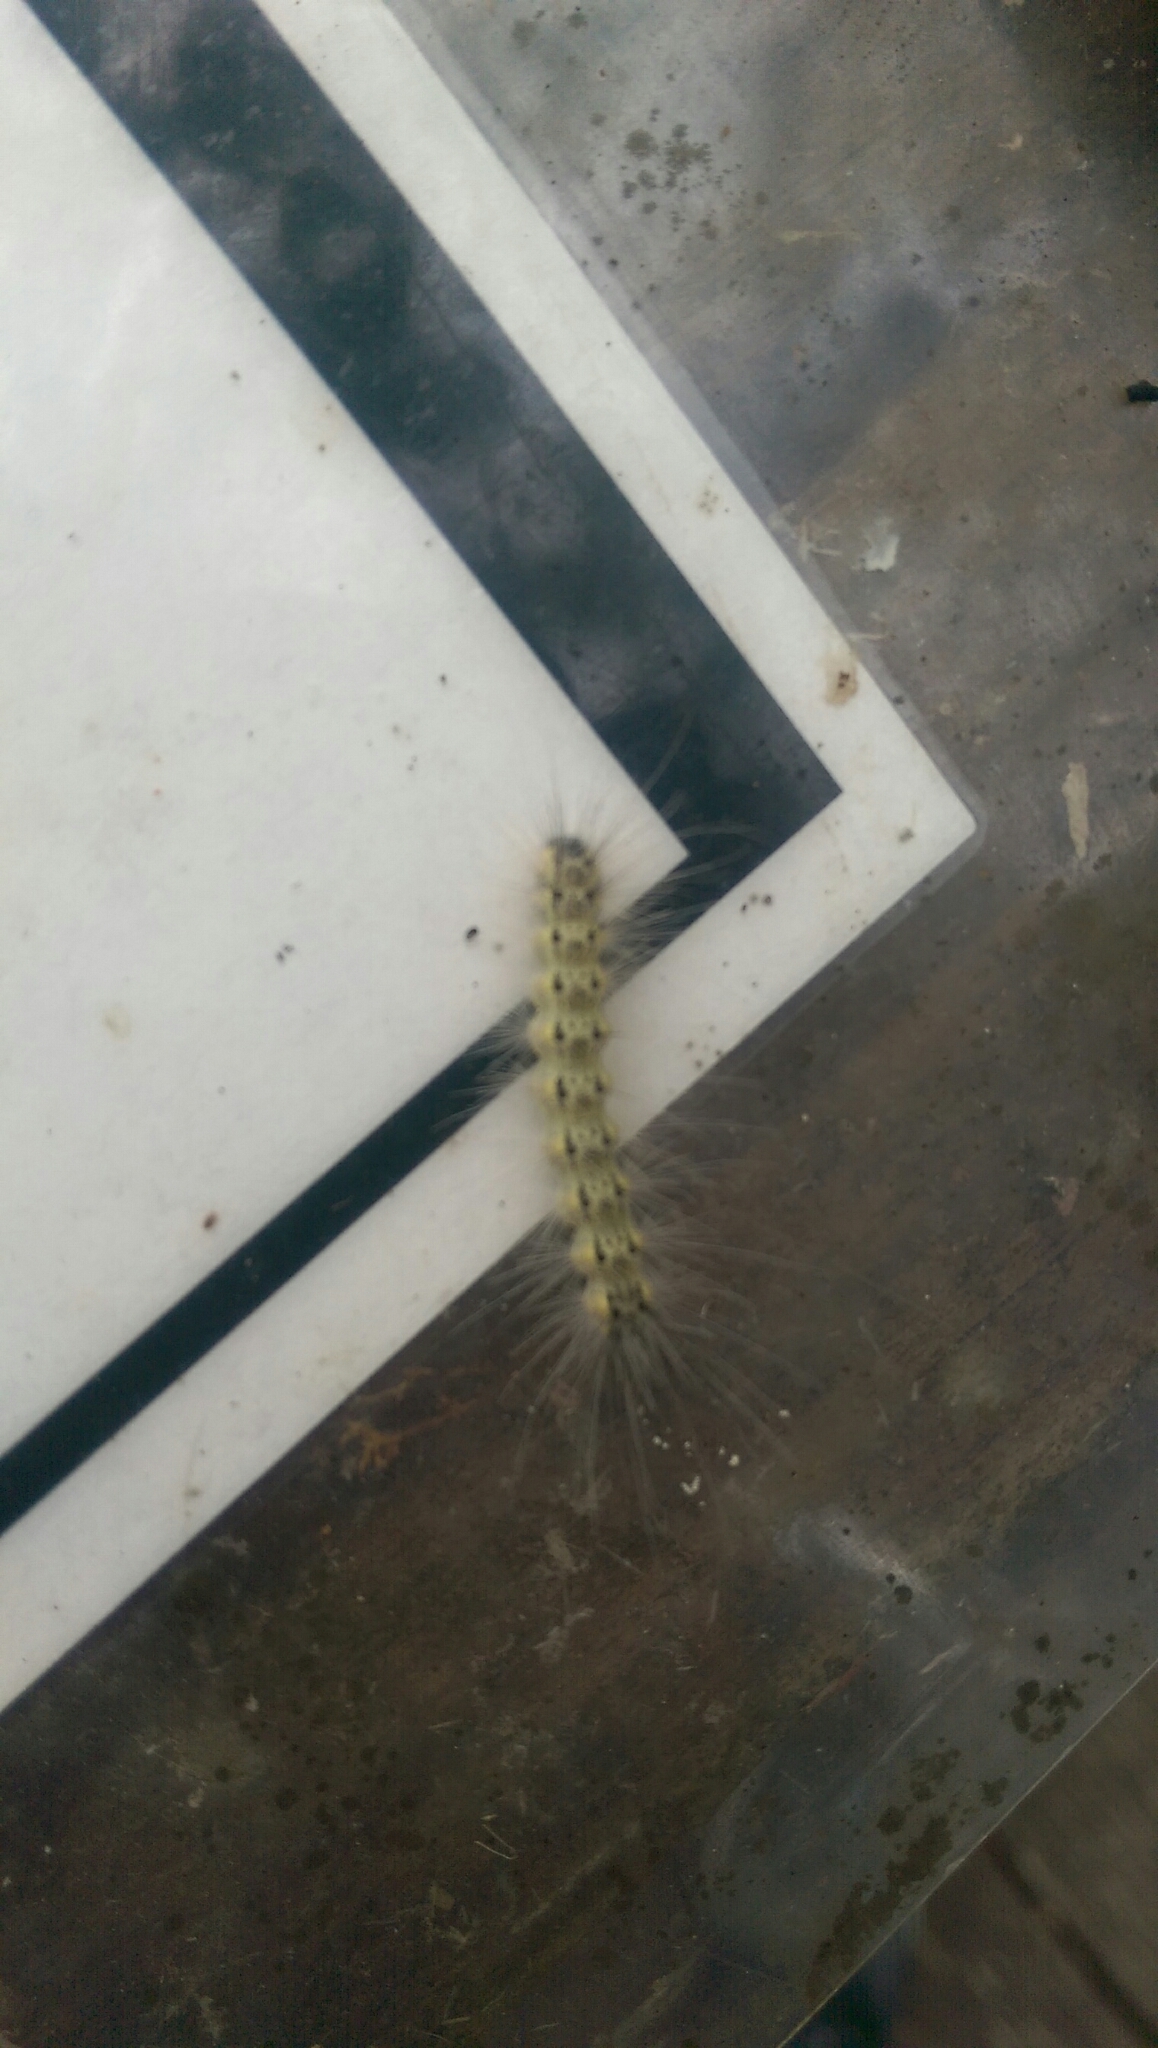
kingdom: Animalia
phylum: Arthropoda
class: Insecta
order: Lepidoptera
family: Erebidae
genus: Hyphantria
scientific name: Hyphantria cunea
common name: American white moth
